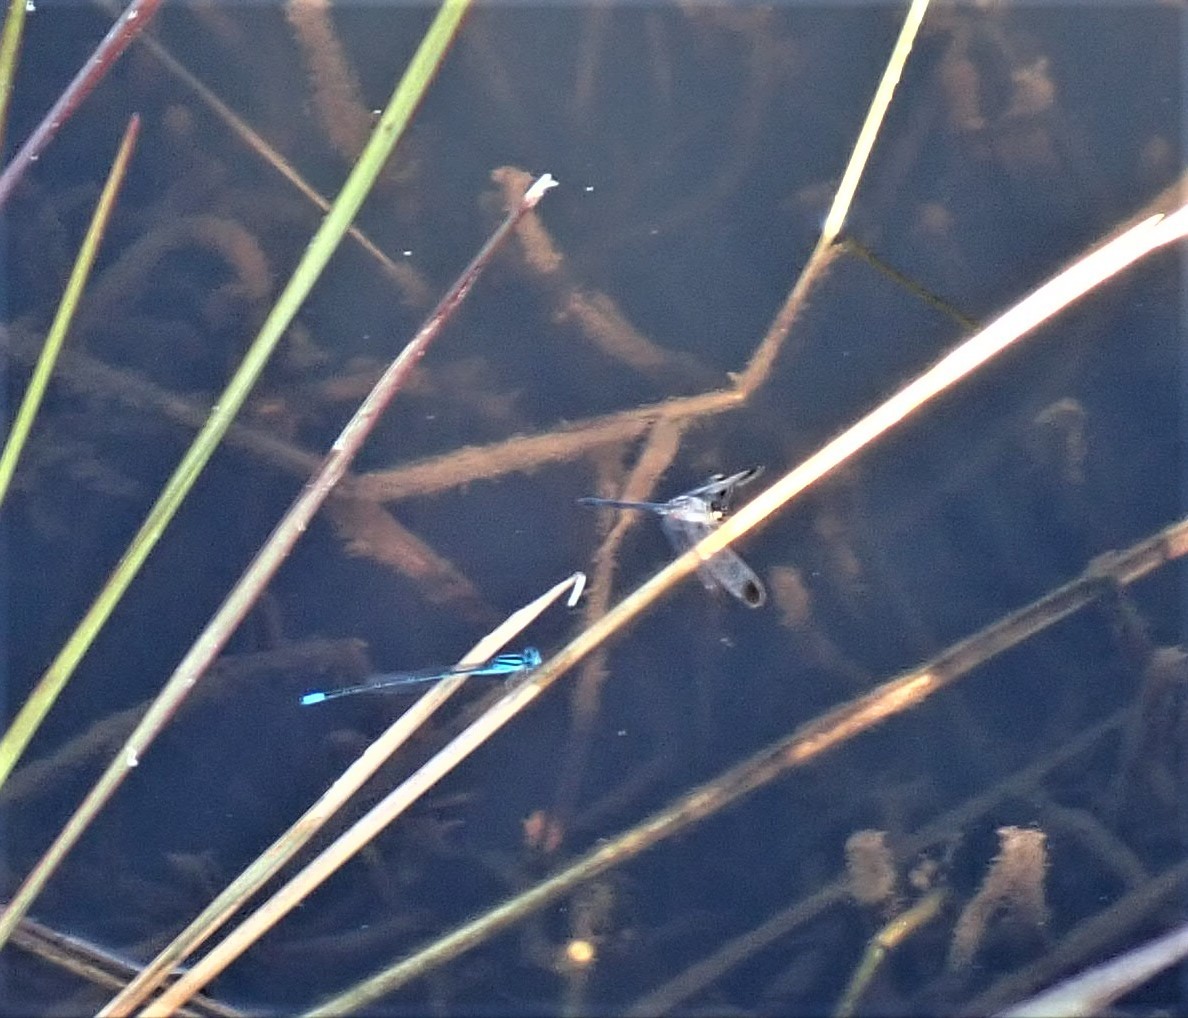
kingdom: Animalia
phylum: Arthropoda
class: Insecta
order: Odonata
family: Libellulidae
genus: Diplacodes
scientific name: Diplacodes nebulosa
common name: Black-tipped percher
